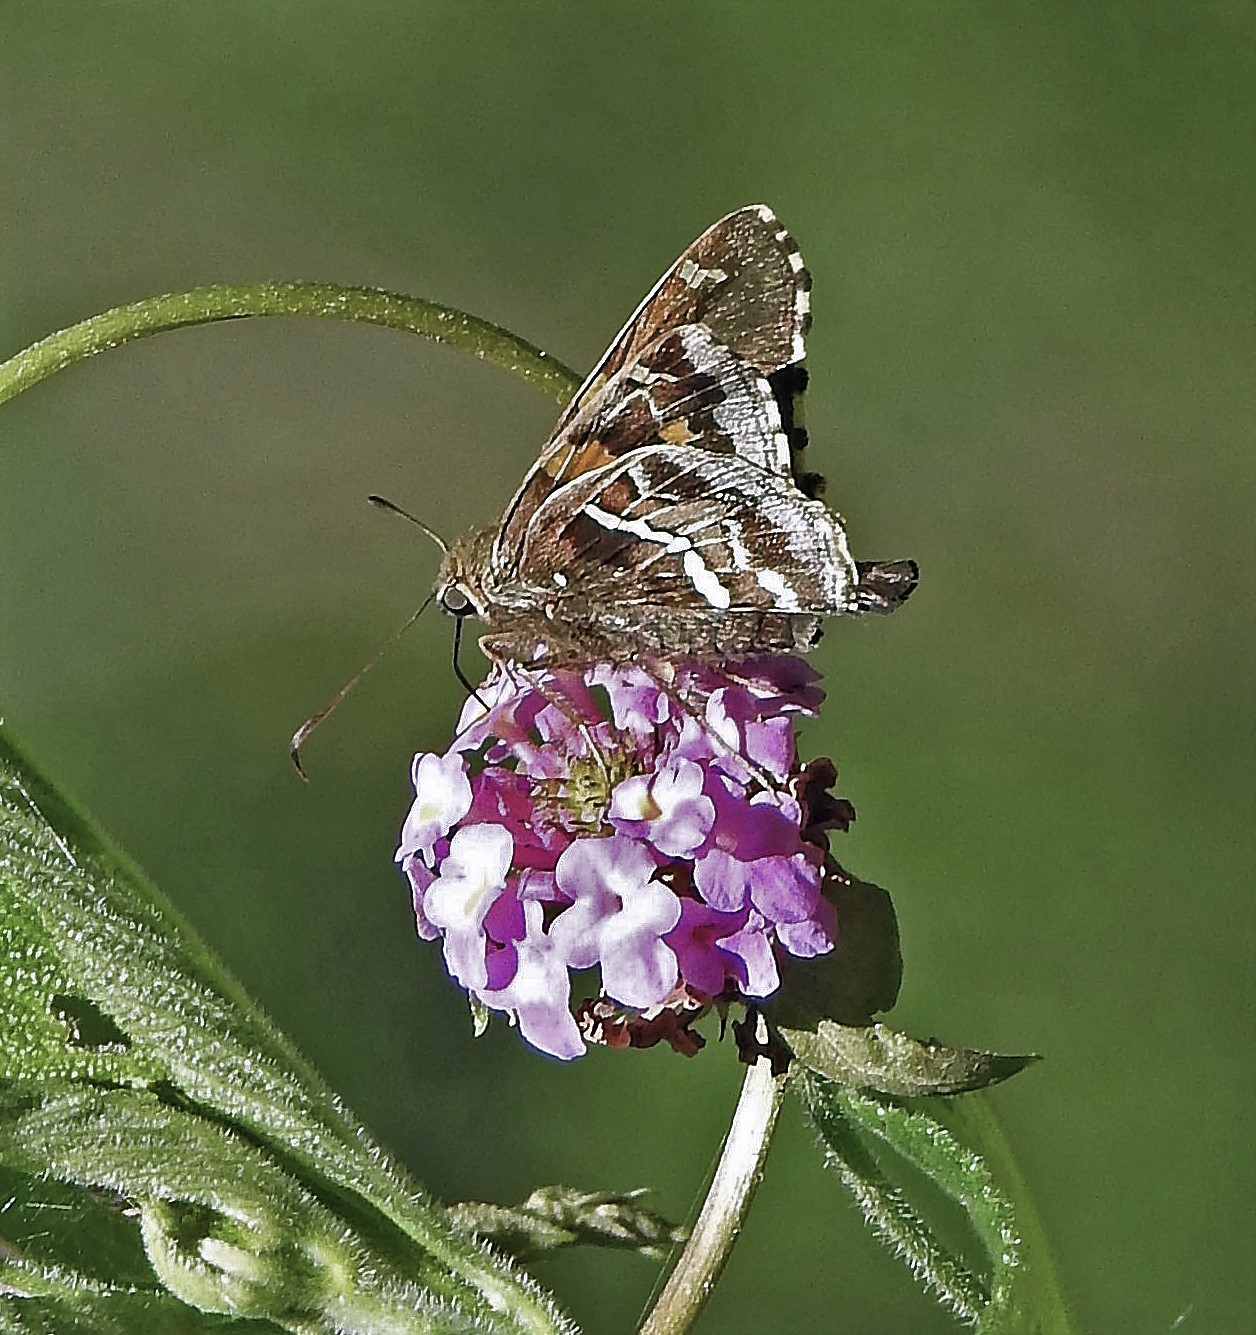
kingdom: Animalia
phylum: Arthropoda
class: Insecta
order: Lepidoptera
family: Hesperiidae
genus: Epargyreus
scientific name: Epargyreus barisses
